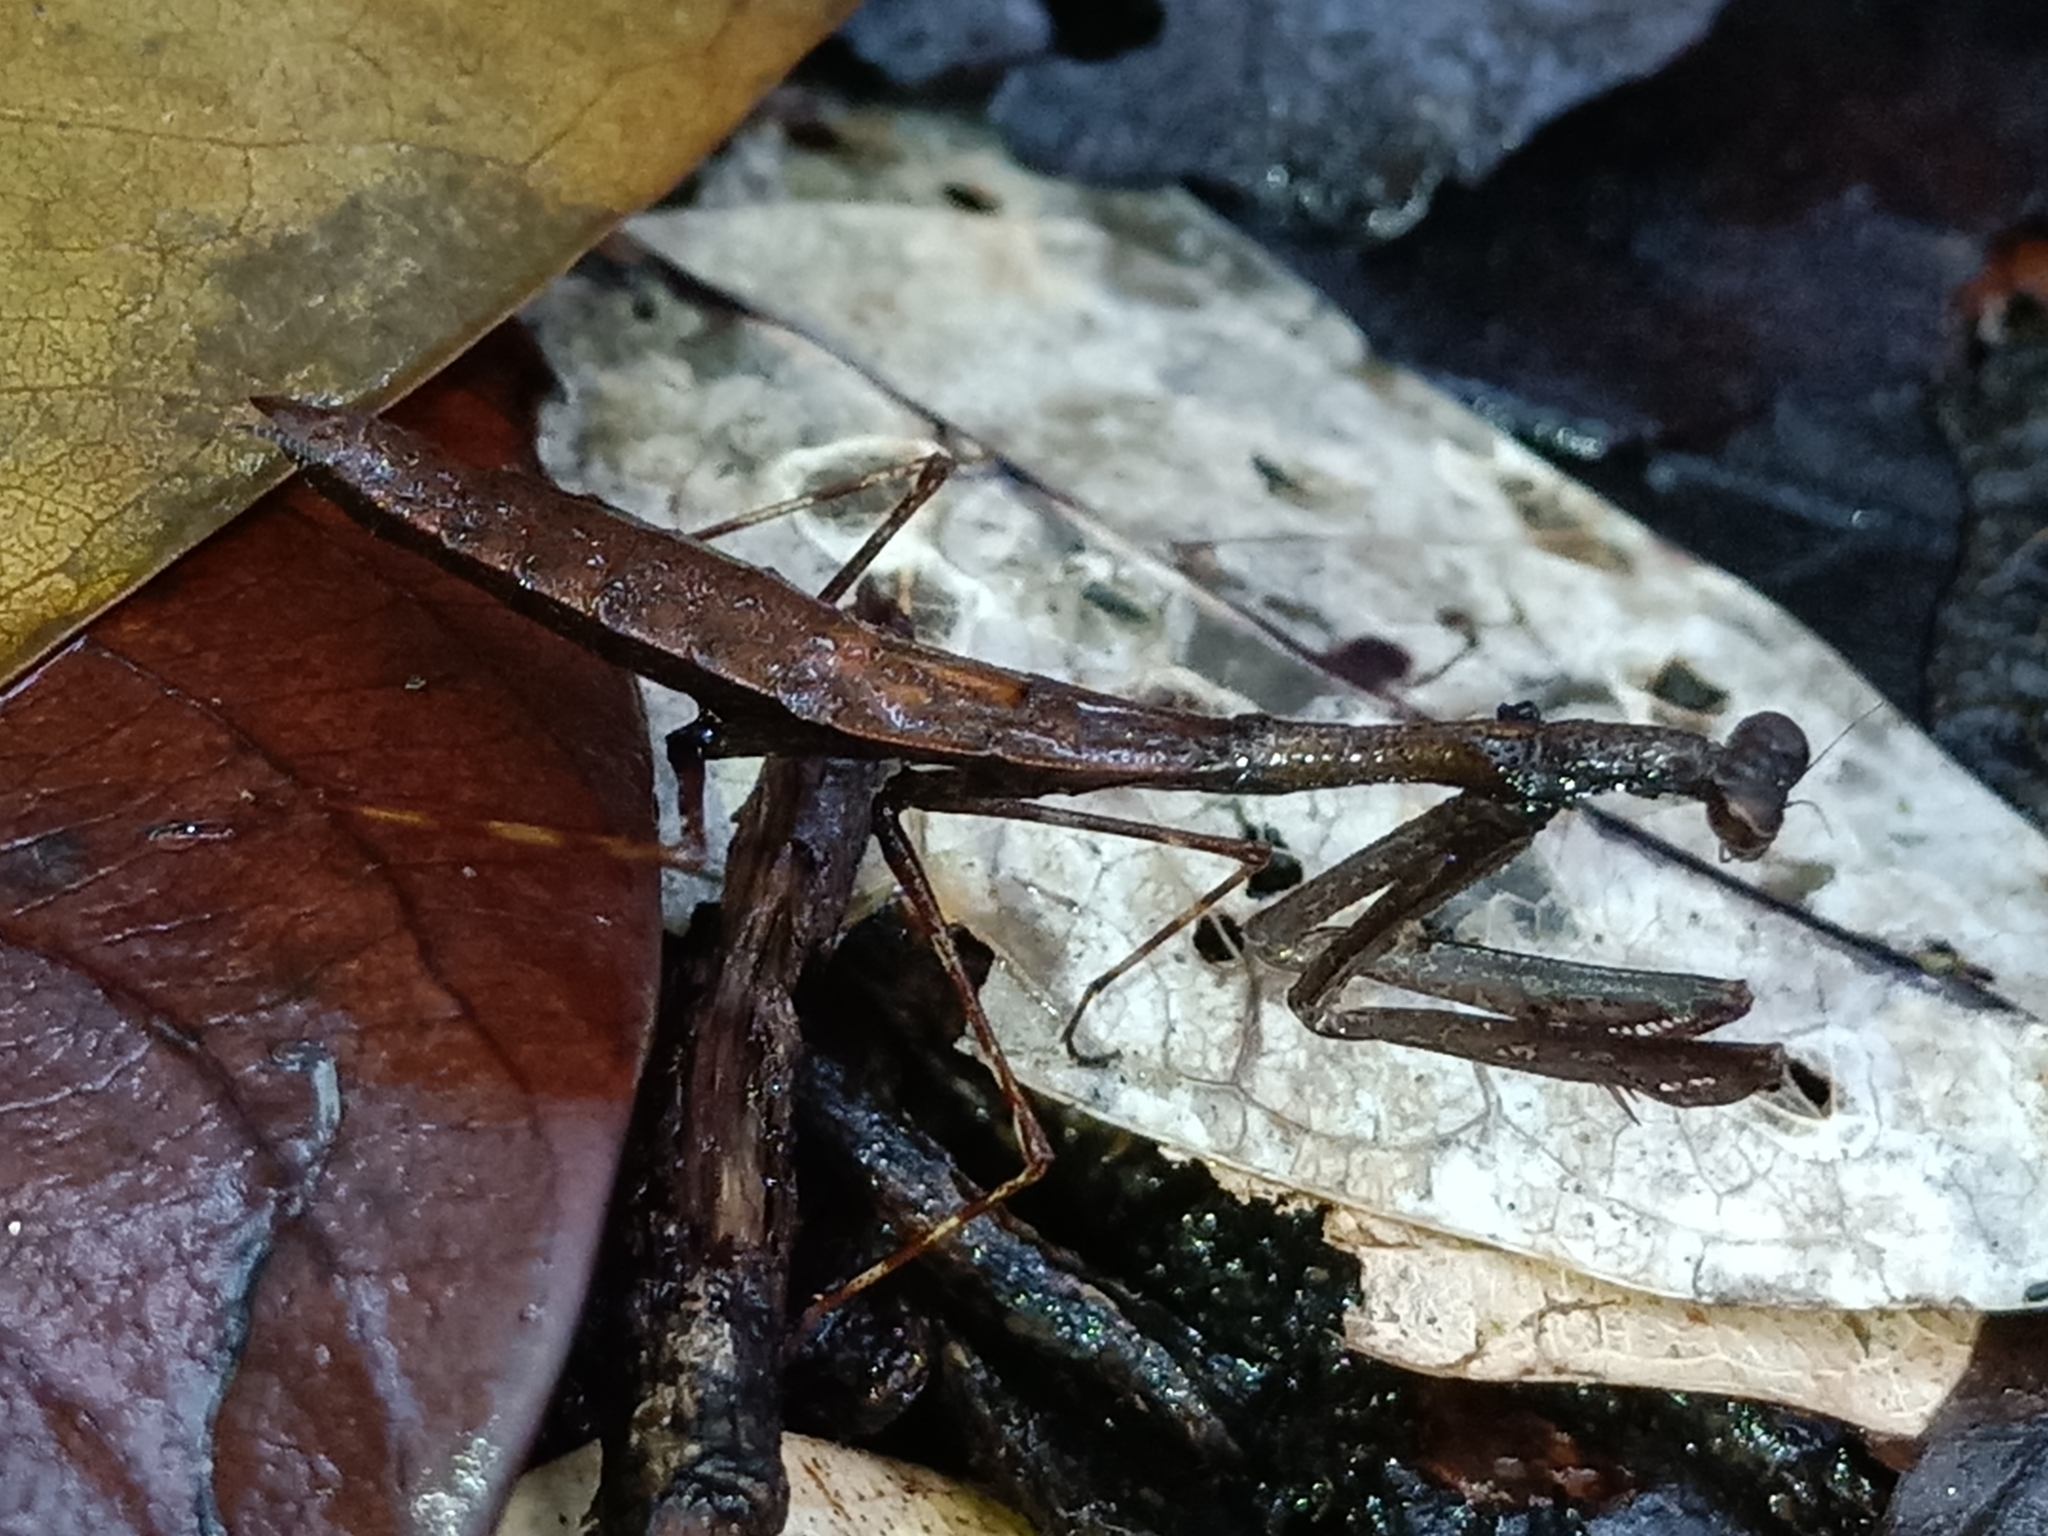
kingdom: Animalia
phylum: Arthropoda
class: Insecta
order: Mantodea
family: Thespidae
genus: Leptomiopteryx
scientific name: Leptomiopteryx dispar
